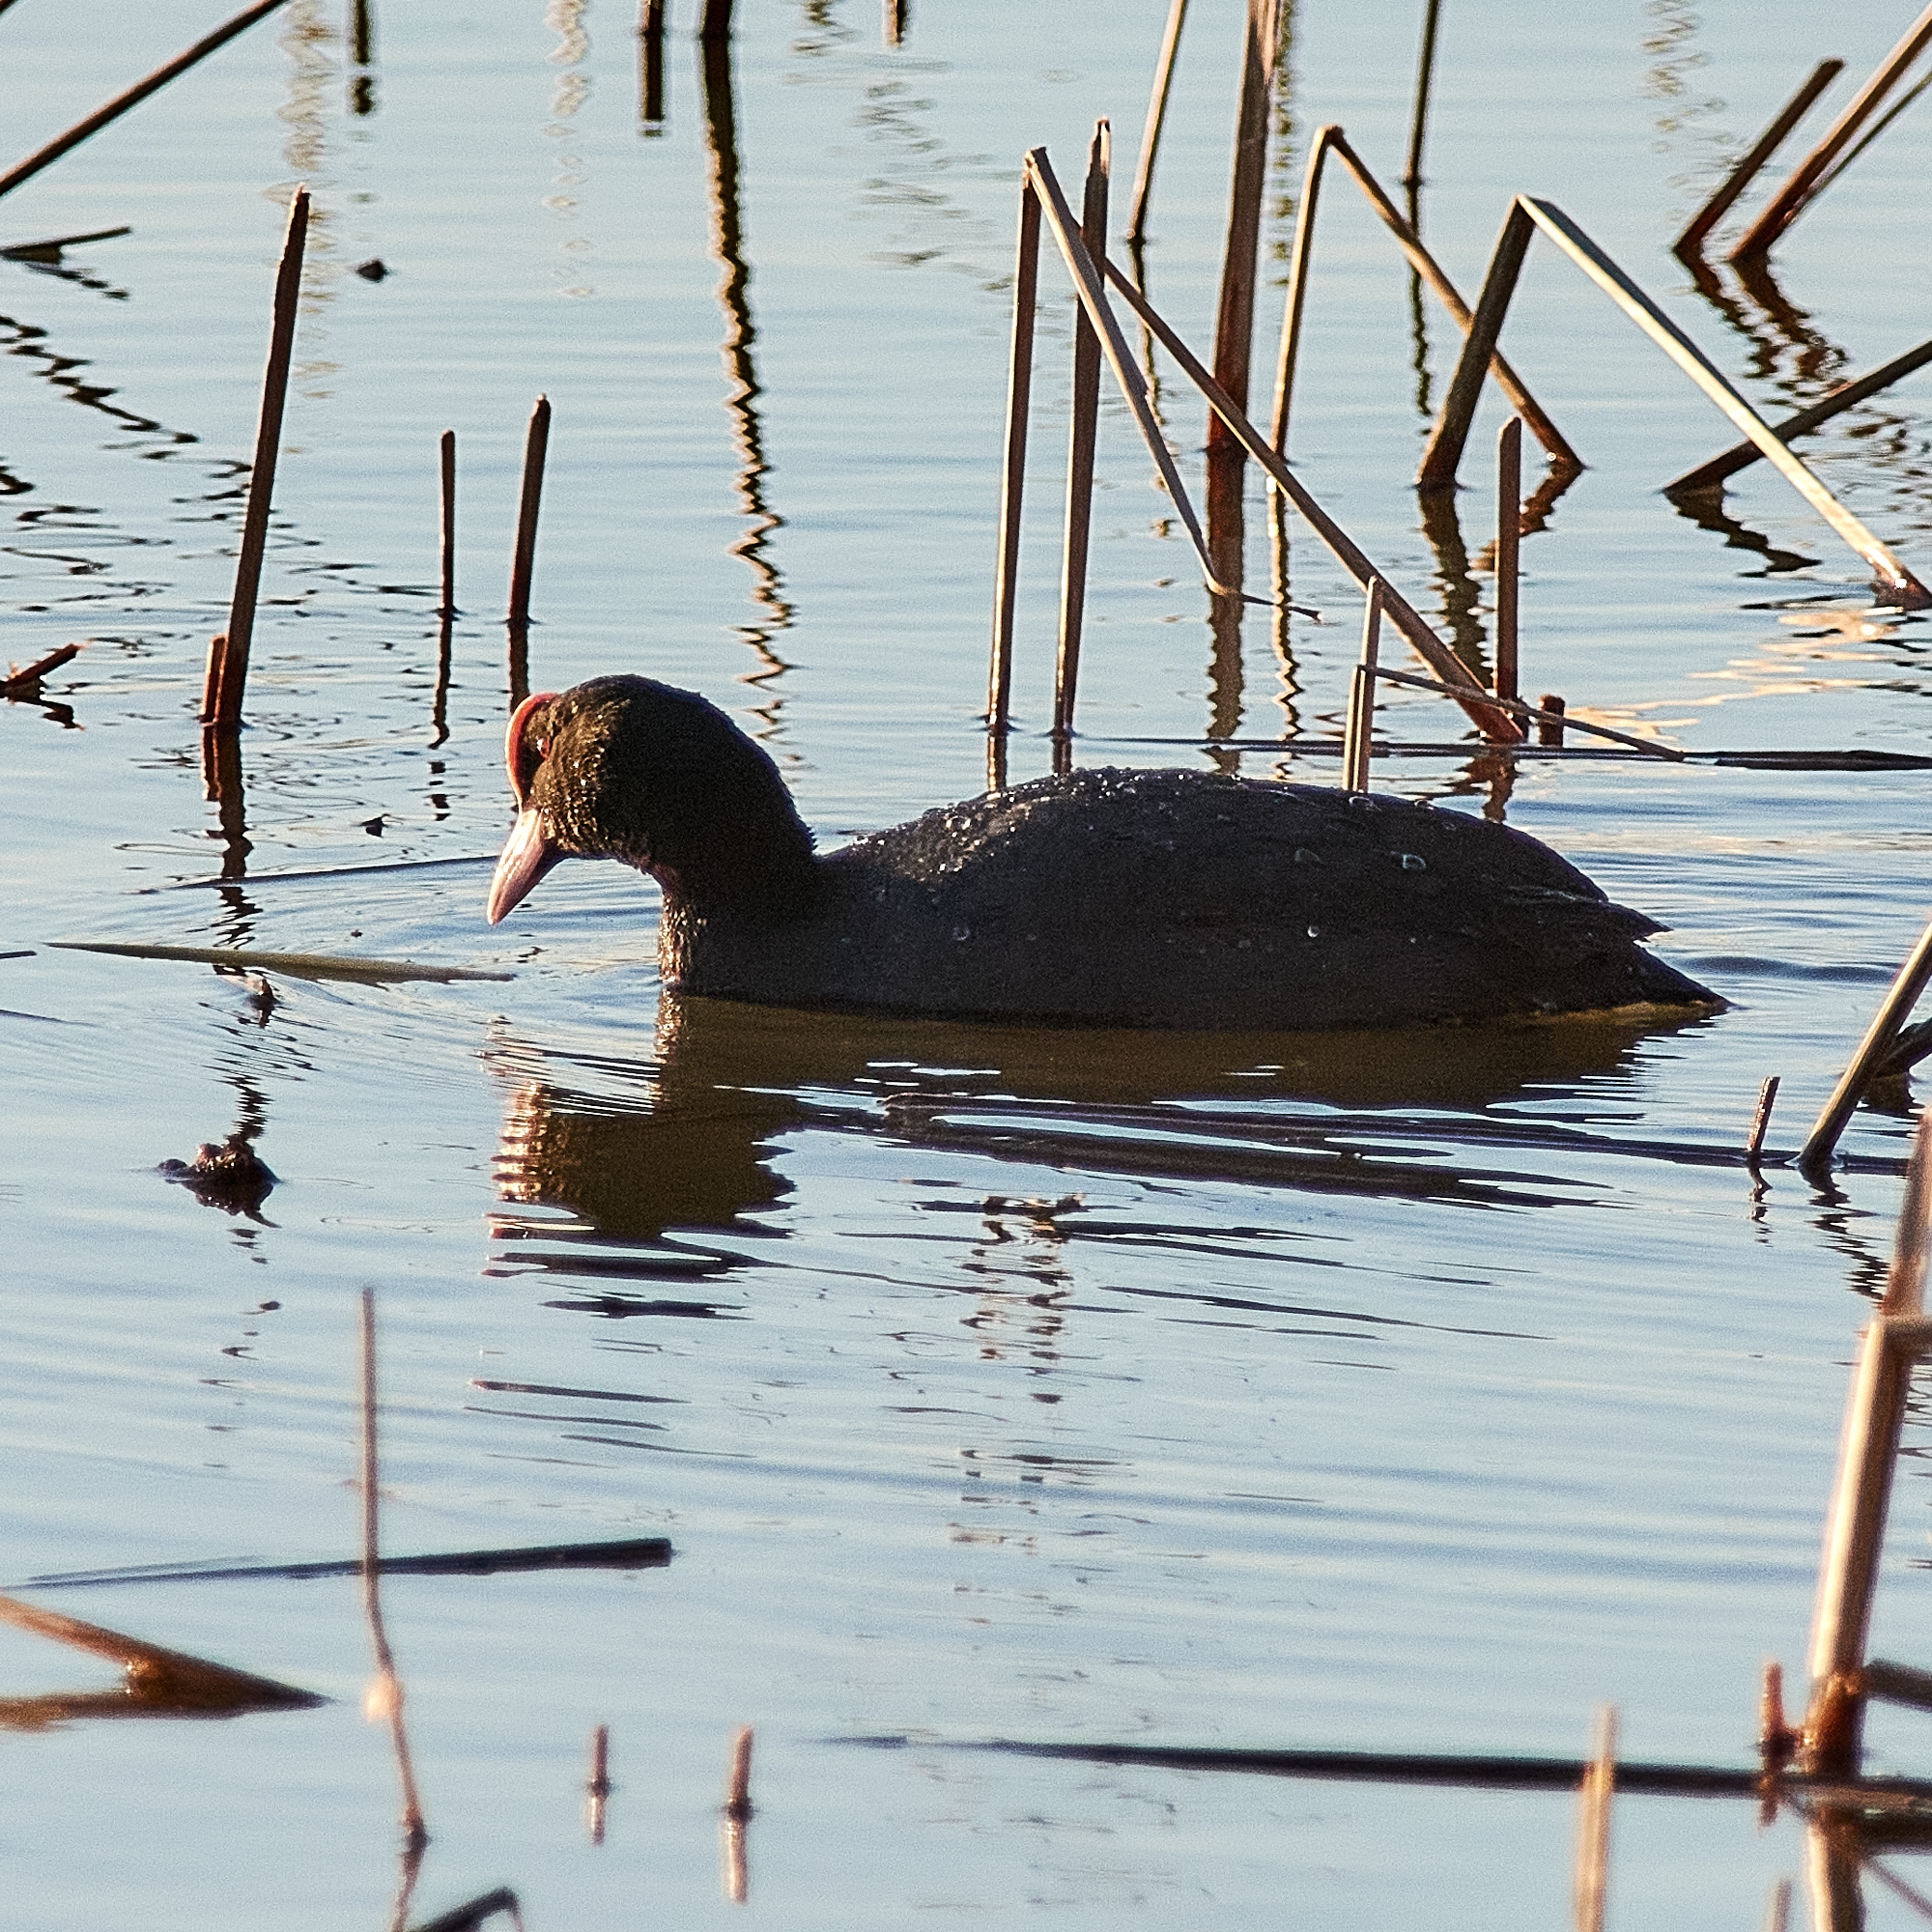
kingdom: Animalia
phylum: Chordata
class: Aves
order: Gruiformes
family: Rallidae
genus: Fulica
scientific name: Fulica atra
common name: Eurasian coot
